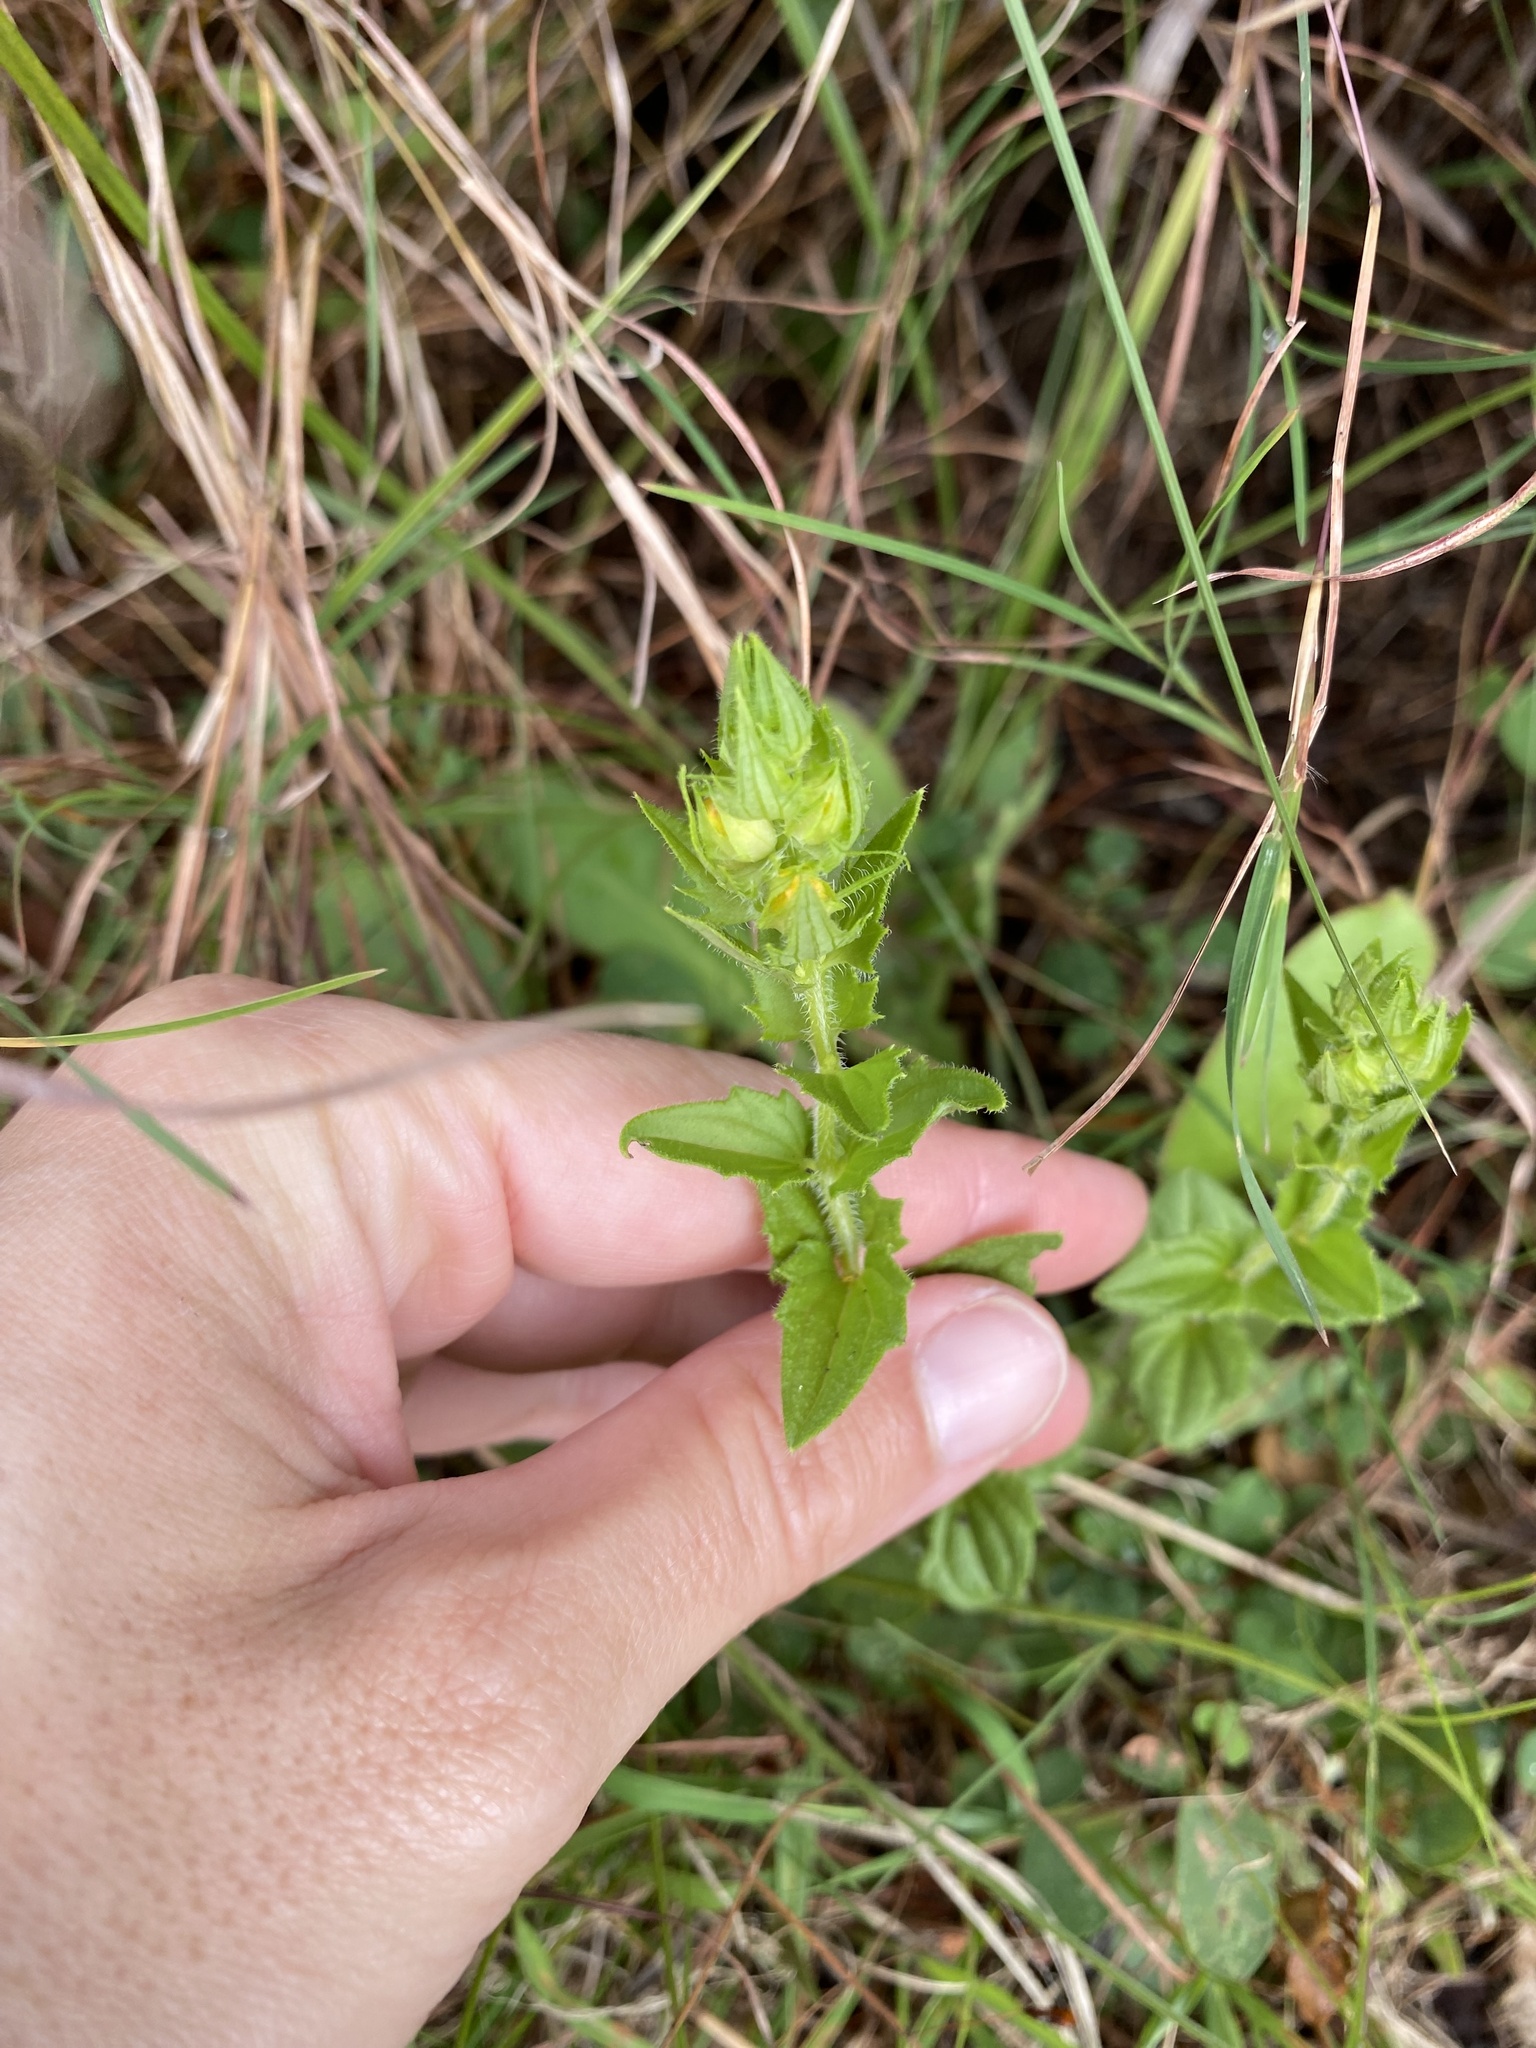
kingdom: Plantae
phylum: Tracheophyta
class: Magnoliopsida
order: Lamiales
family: Orobanchaceae
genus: Alectra
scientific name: Alectra sessiliflora
